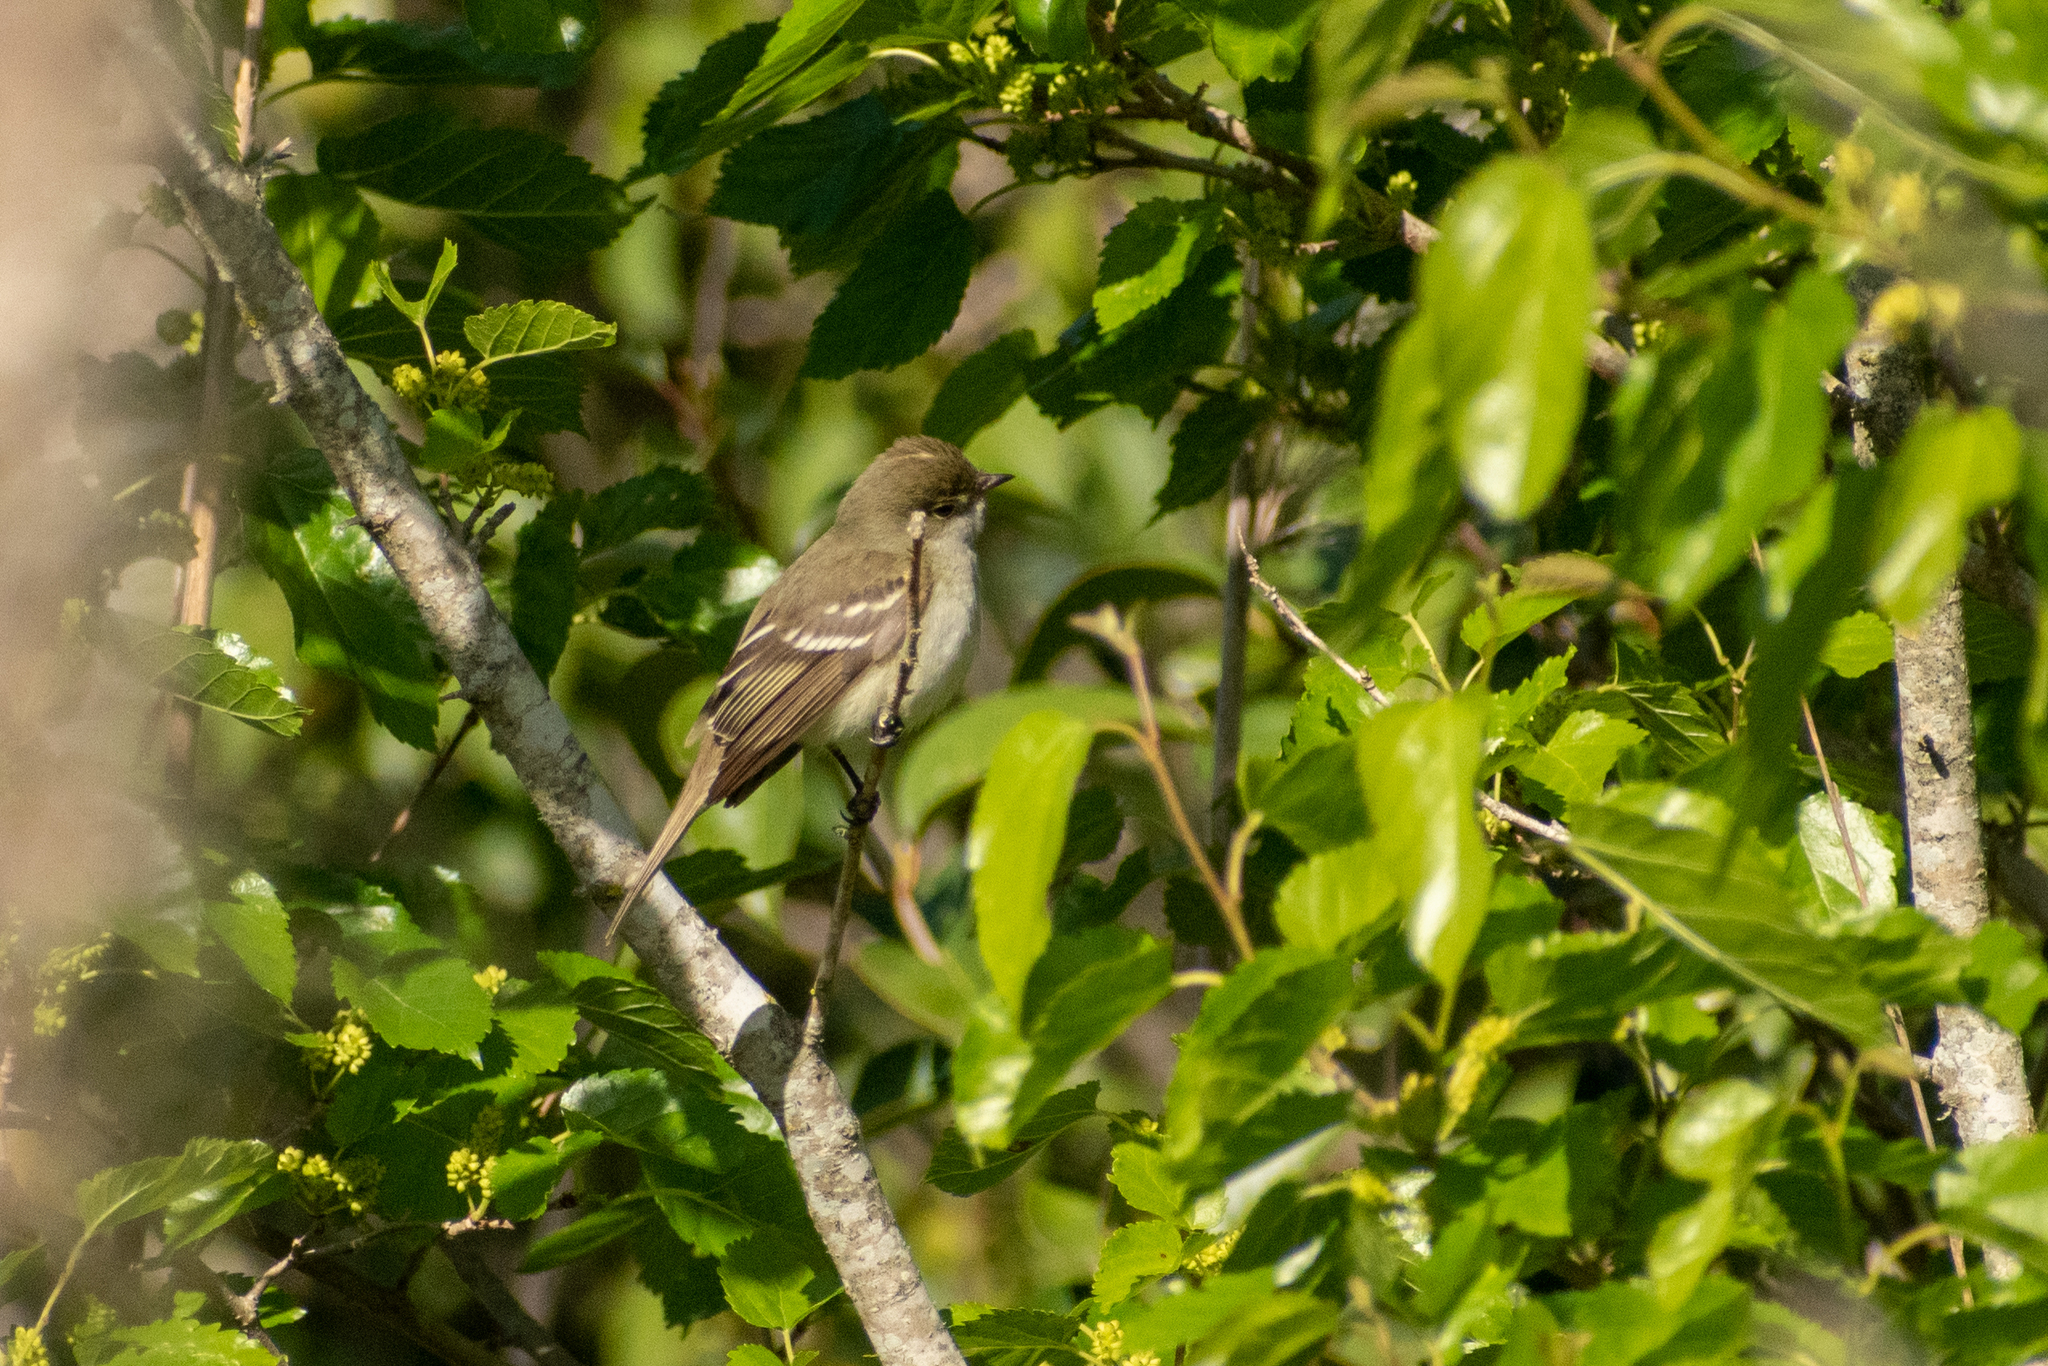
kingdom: Animalia
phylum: Chordata
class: Aves
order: Passeriformes
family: Tyrannidae
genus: Elaenia
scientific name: Elaenia parvirostris
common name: Small-billed elaenia
